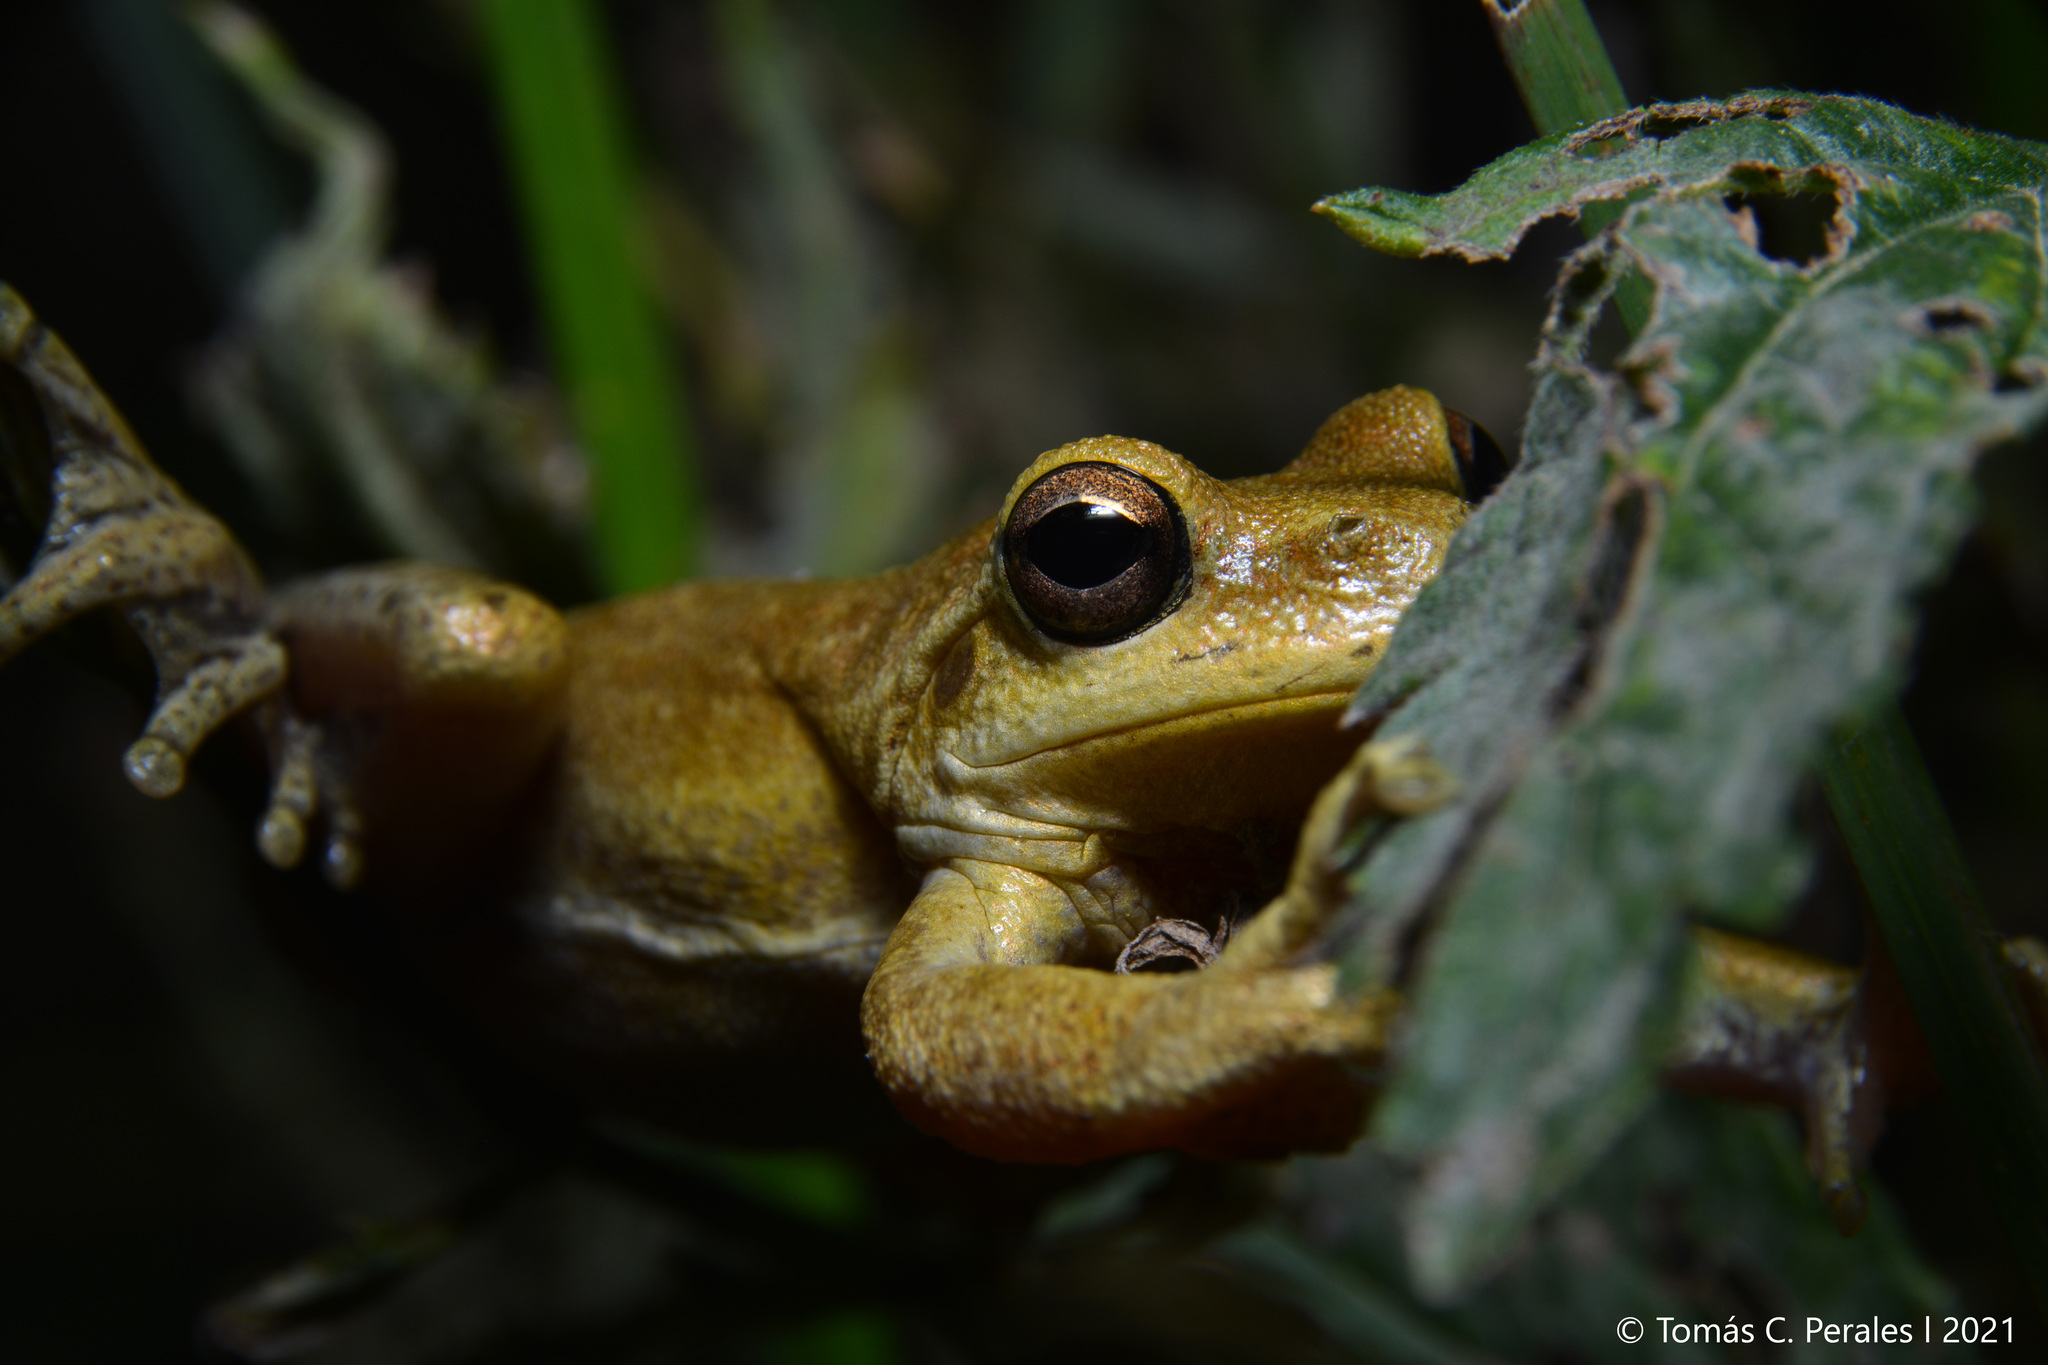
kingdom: Animalia
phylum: Chordata
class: Amphibia
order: Anura
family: Hylidae
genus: Boana
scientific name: Boana cordobae
